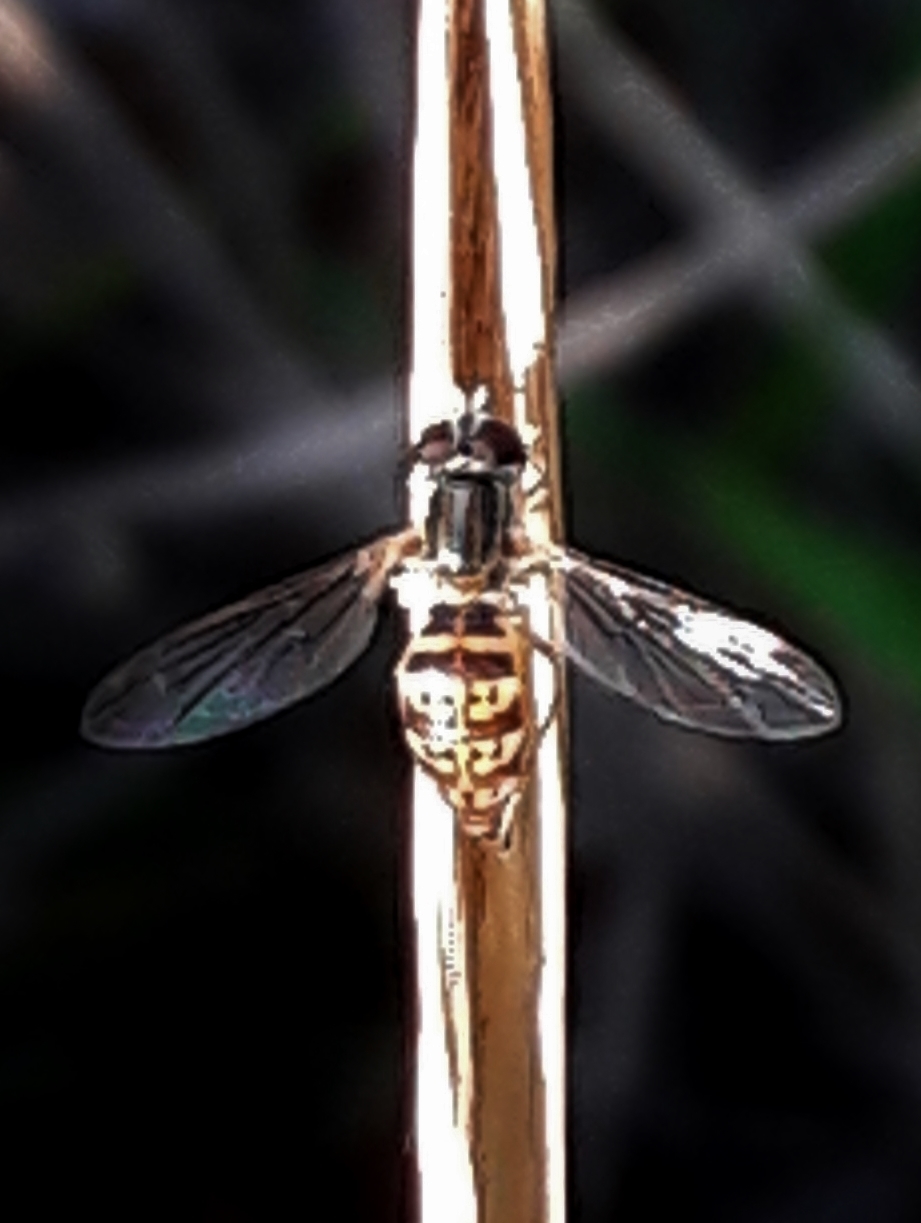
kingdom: Animalia
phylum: Arthropoda
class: Insecta
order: Diptera
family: Syrphidae
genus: Toxomerus
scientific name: Toxomerus
